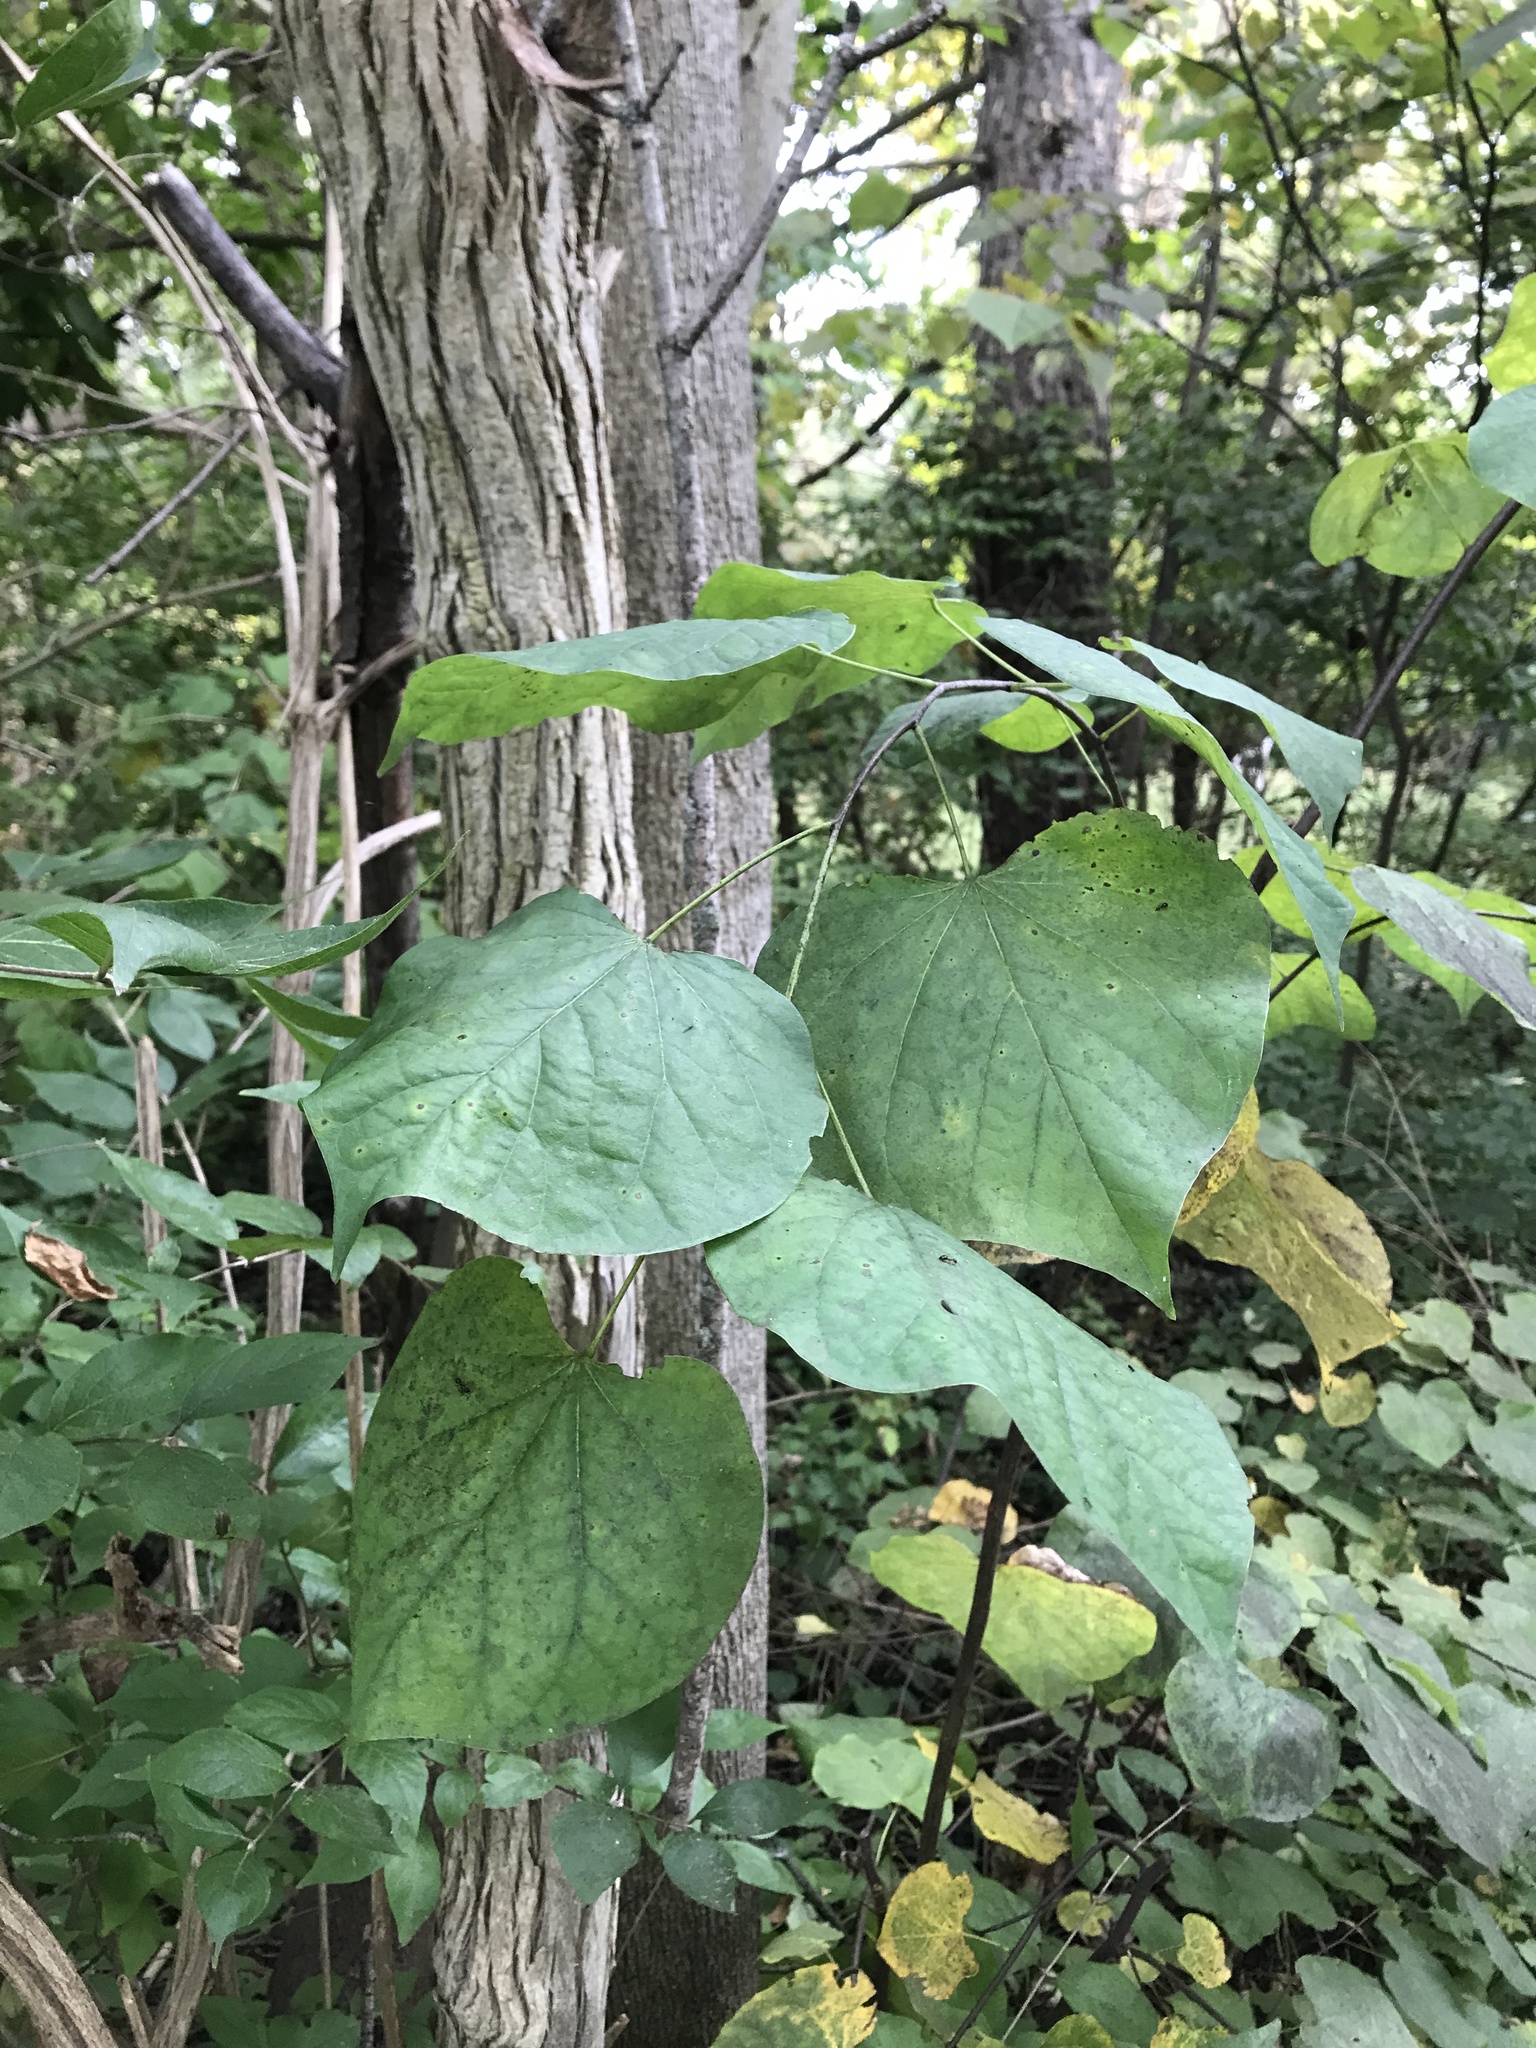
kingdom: Plantae
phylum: Tracheophyta
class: Magnoliopsida
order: Fabales
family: Fabaceae
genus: Cercis
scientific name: Cercis canadensis
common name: Eastern redbud
